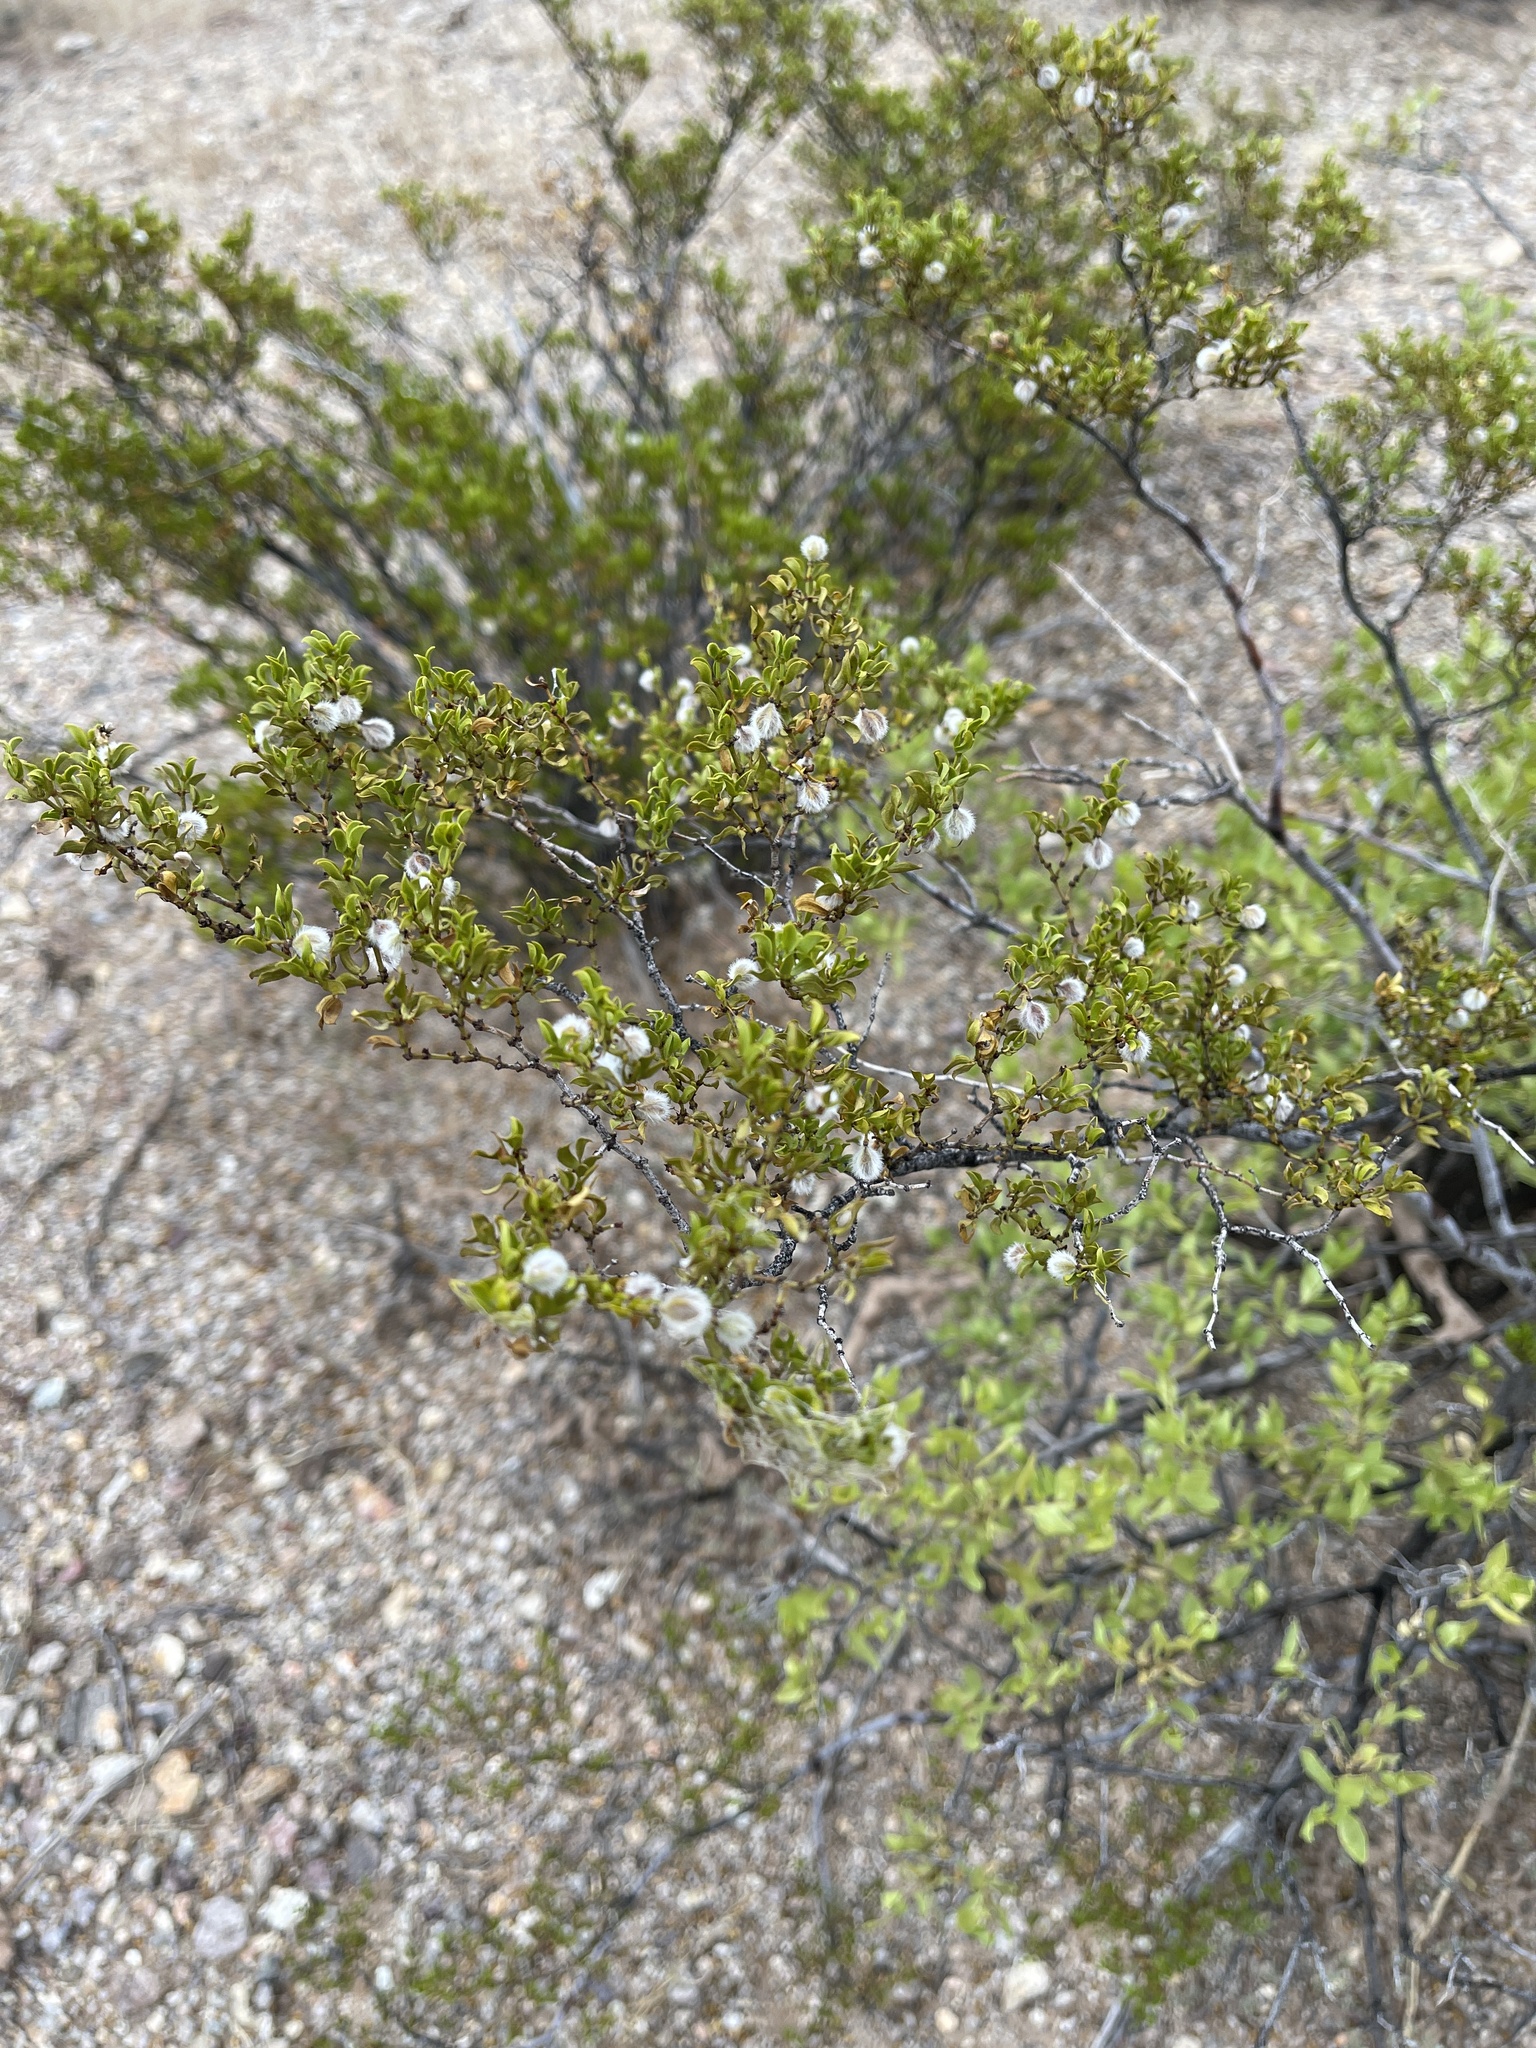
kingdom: Plantae
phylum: Tracheophyta
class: Magnoliopsida
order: Zygophyllales
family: Zygophyllaceae
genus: Larrea
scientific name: Larrea tridentata
